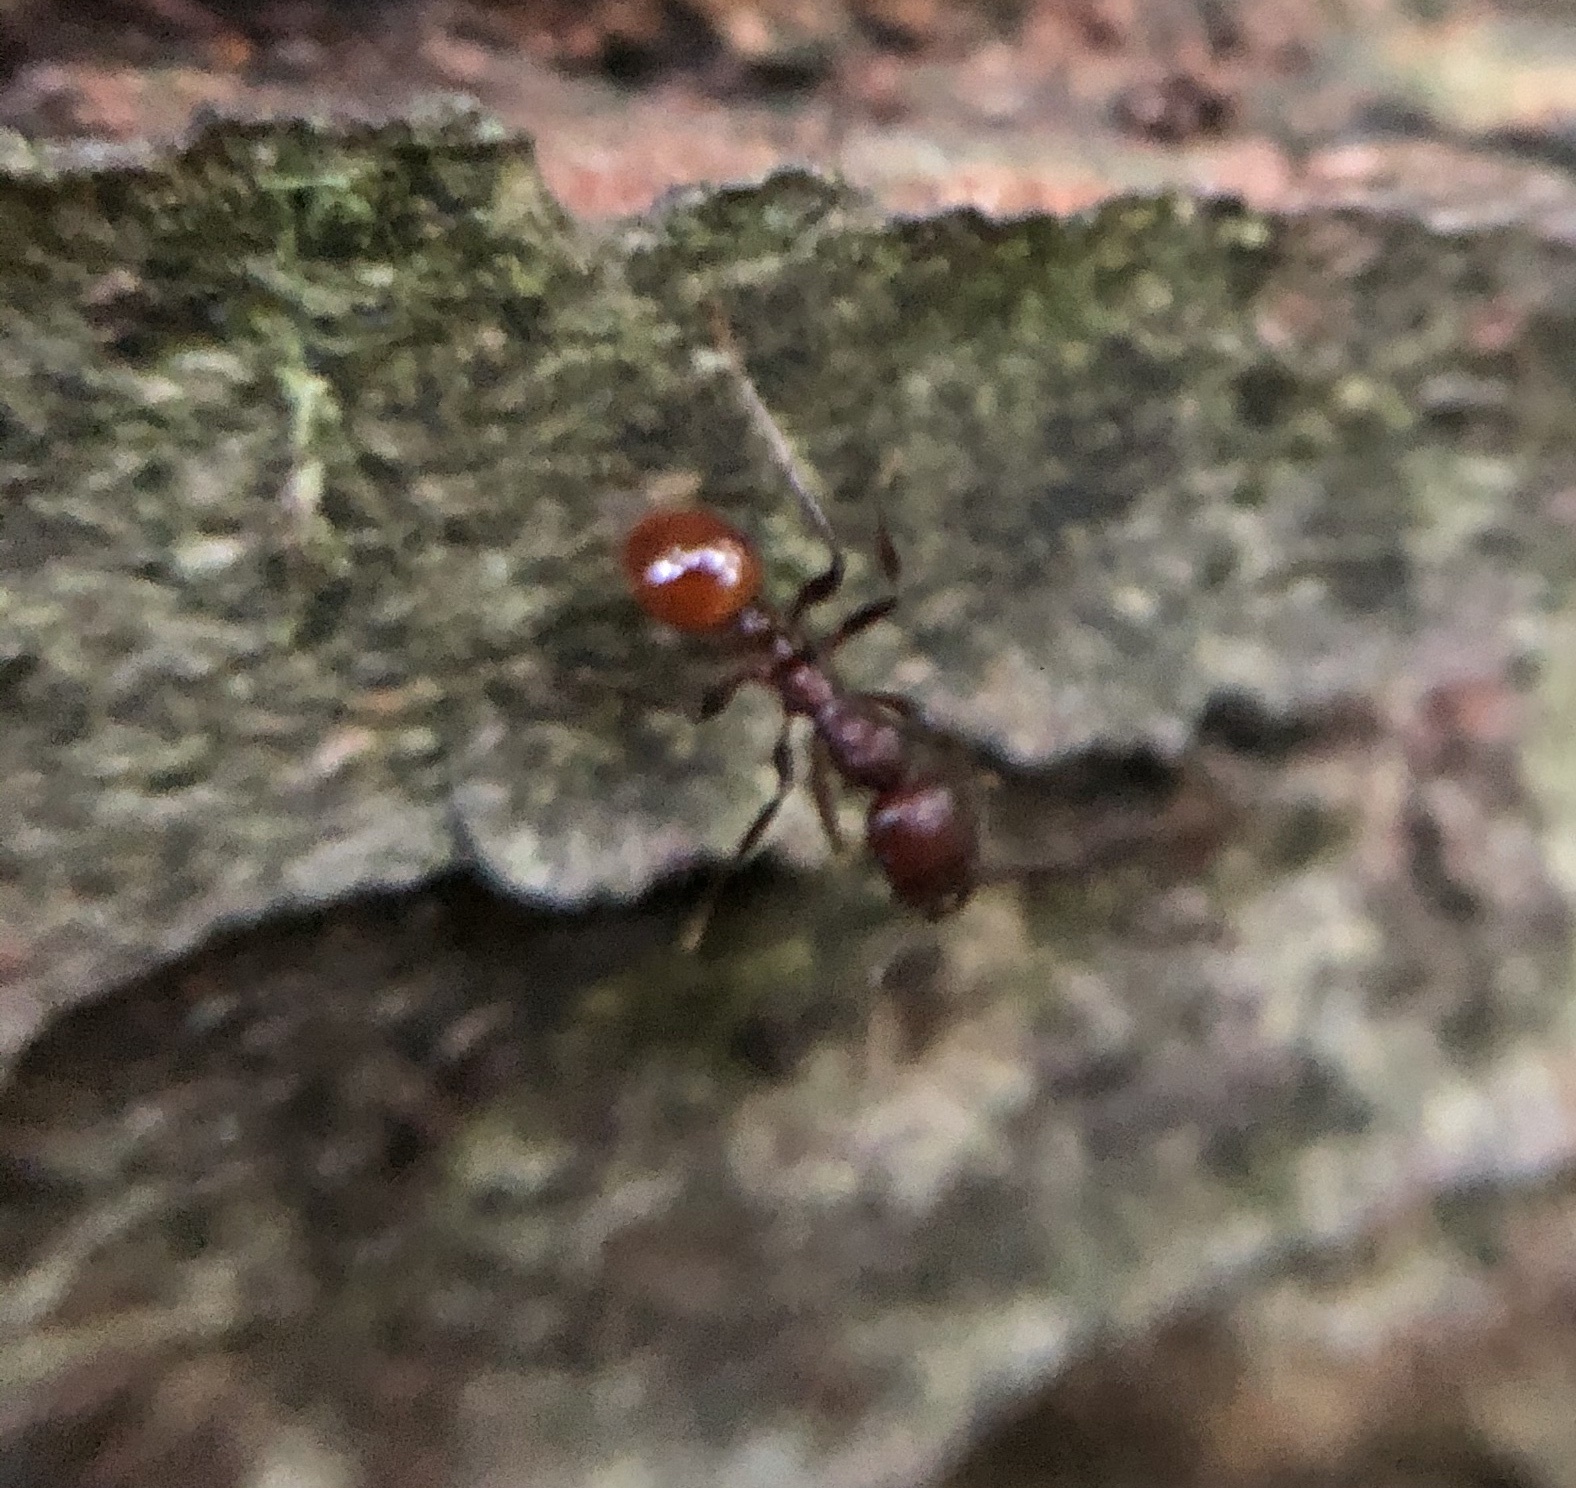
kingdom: Animalia
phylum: Arthropoda
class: Insecta
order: Hymenoptera
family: Formicidae
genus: Aphaenogaster
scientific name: Aphaenogaster tennesseensis
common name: Tennessee thread-waisted ant
